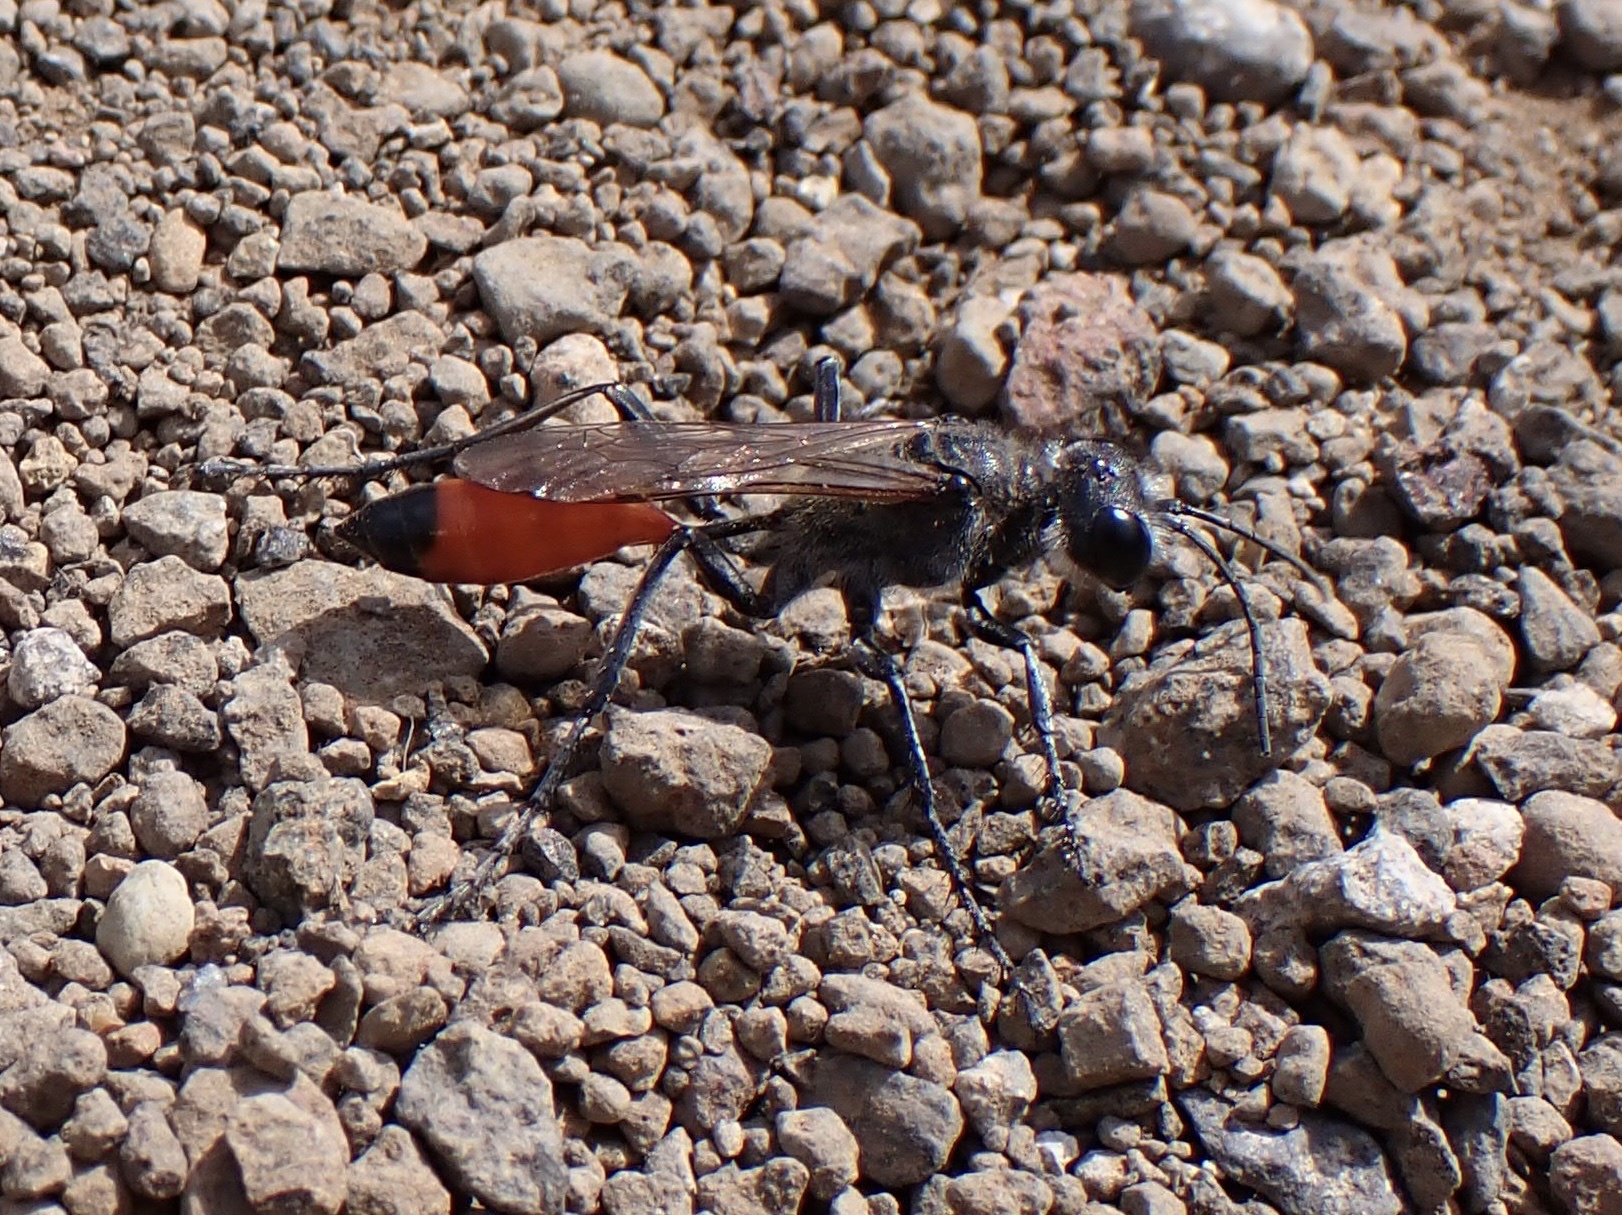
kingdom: Animalia
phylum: Arthropoda
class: Insecta
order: Hymenoptera
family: Sphecidae
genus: Podalonia
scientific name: Podalonia tydei
